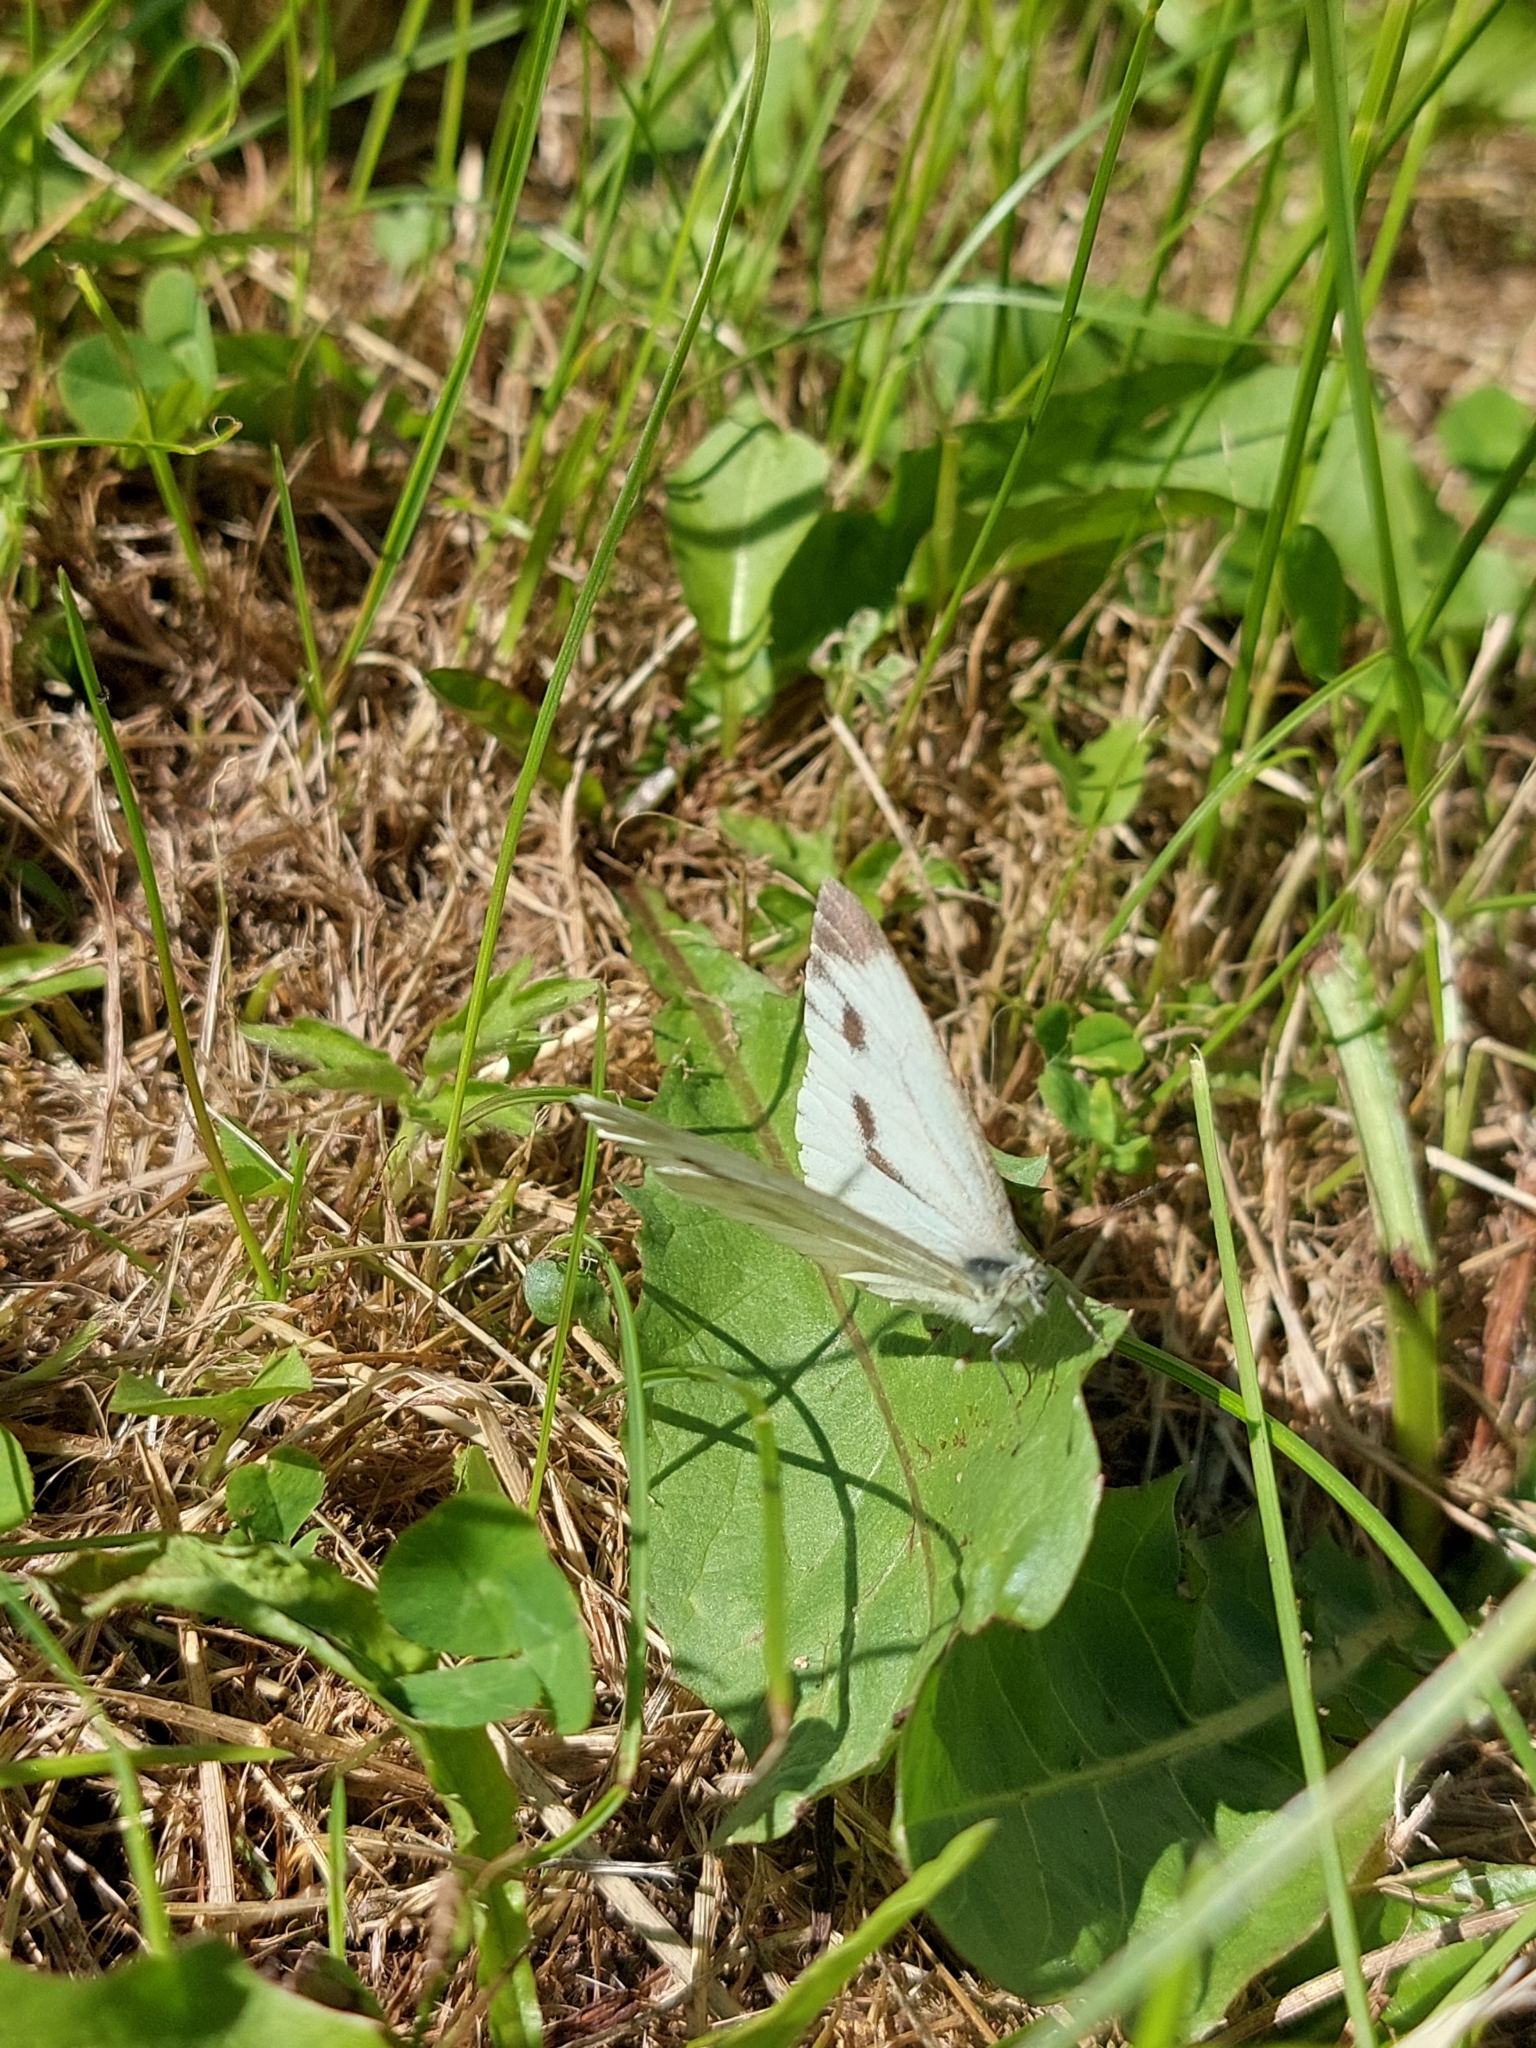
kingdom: Animalia
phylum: Arthropoda
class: Insecta
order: Lepidoptera
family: Pieridae
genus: Pieris
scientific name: Pieris napi
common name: Green-veined white
